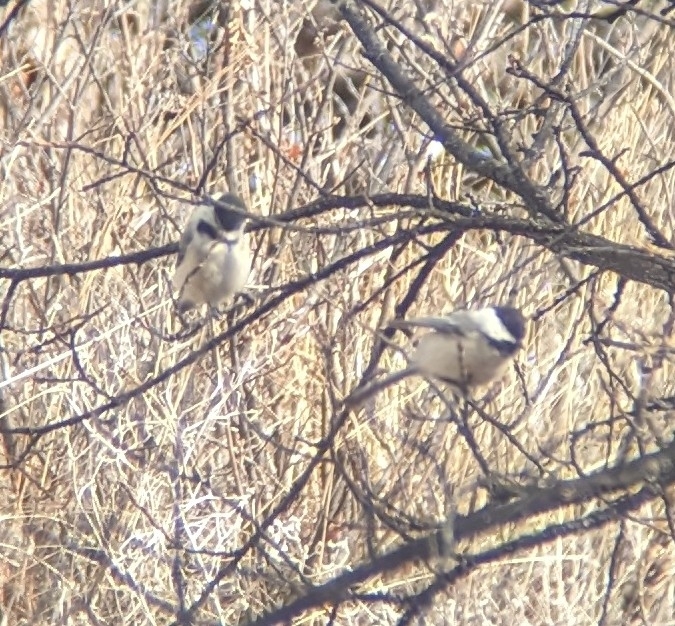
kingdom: Animalia
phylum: Chordata
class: Aves
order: Passeriformes
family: Paridae
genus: Poecile
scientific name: Poecile atricapillus
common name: Black-capped chickadee
